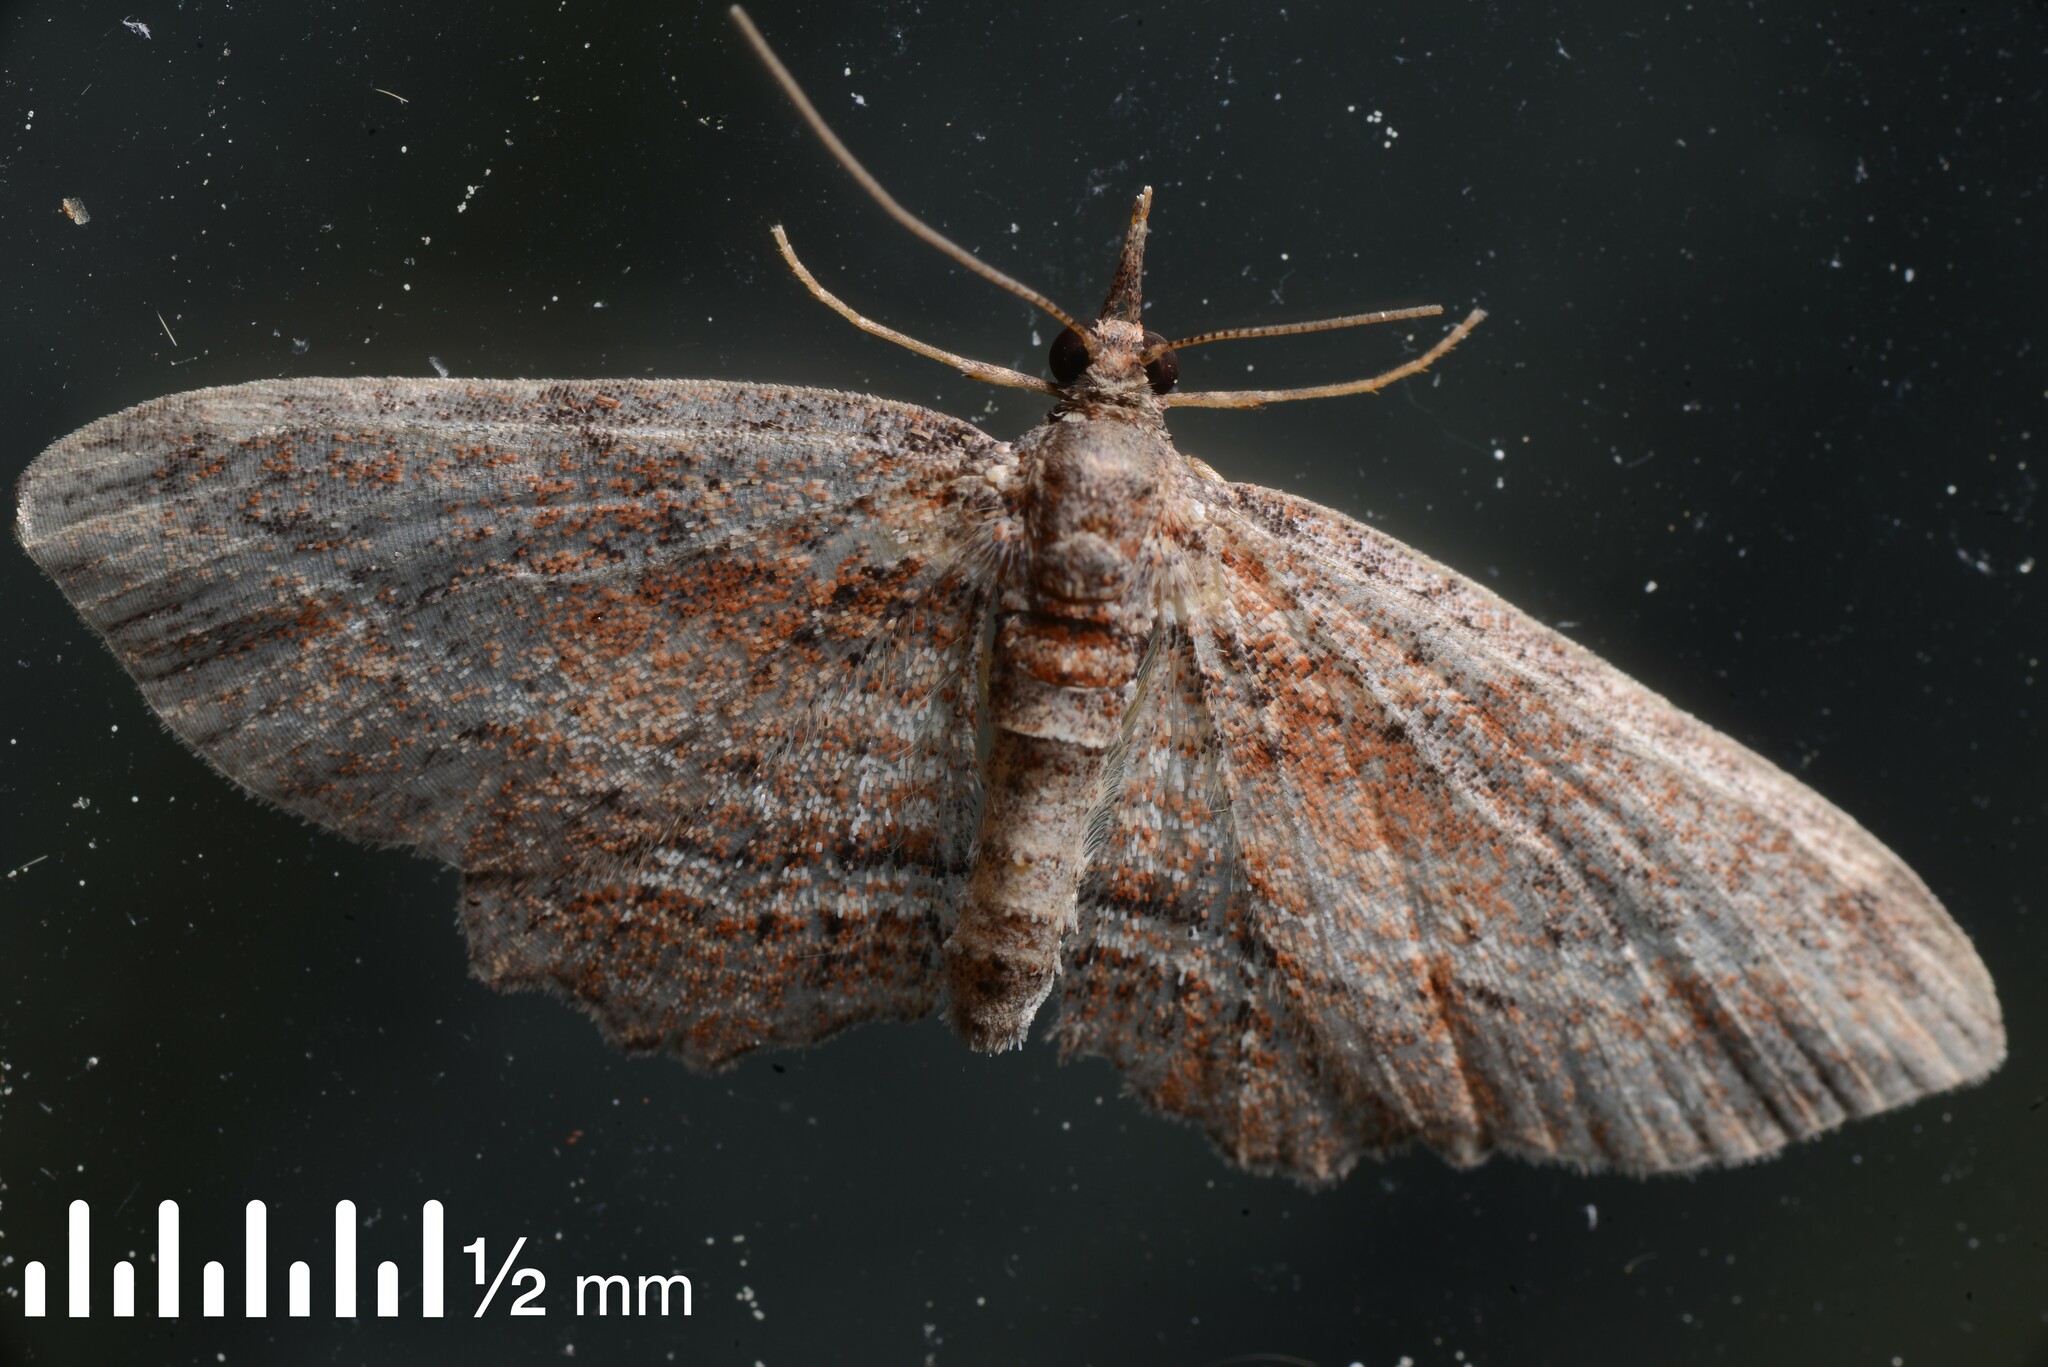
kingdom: Animalia
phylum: Arthropoda
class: Insecta
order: Lepidoptera
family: Geometridae
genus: Chloroclystis
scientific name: Chloroclystis filata
